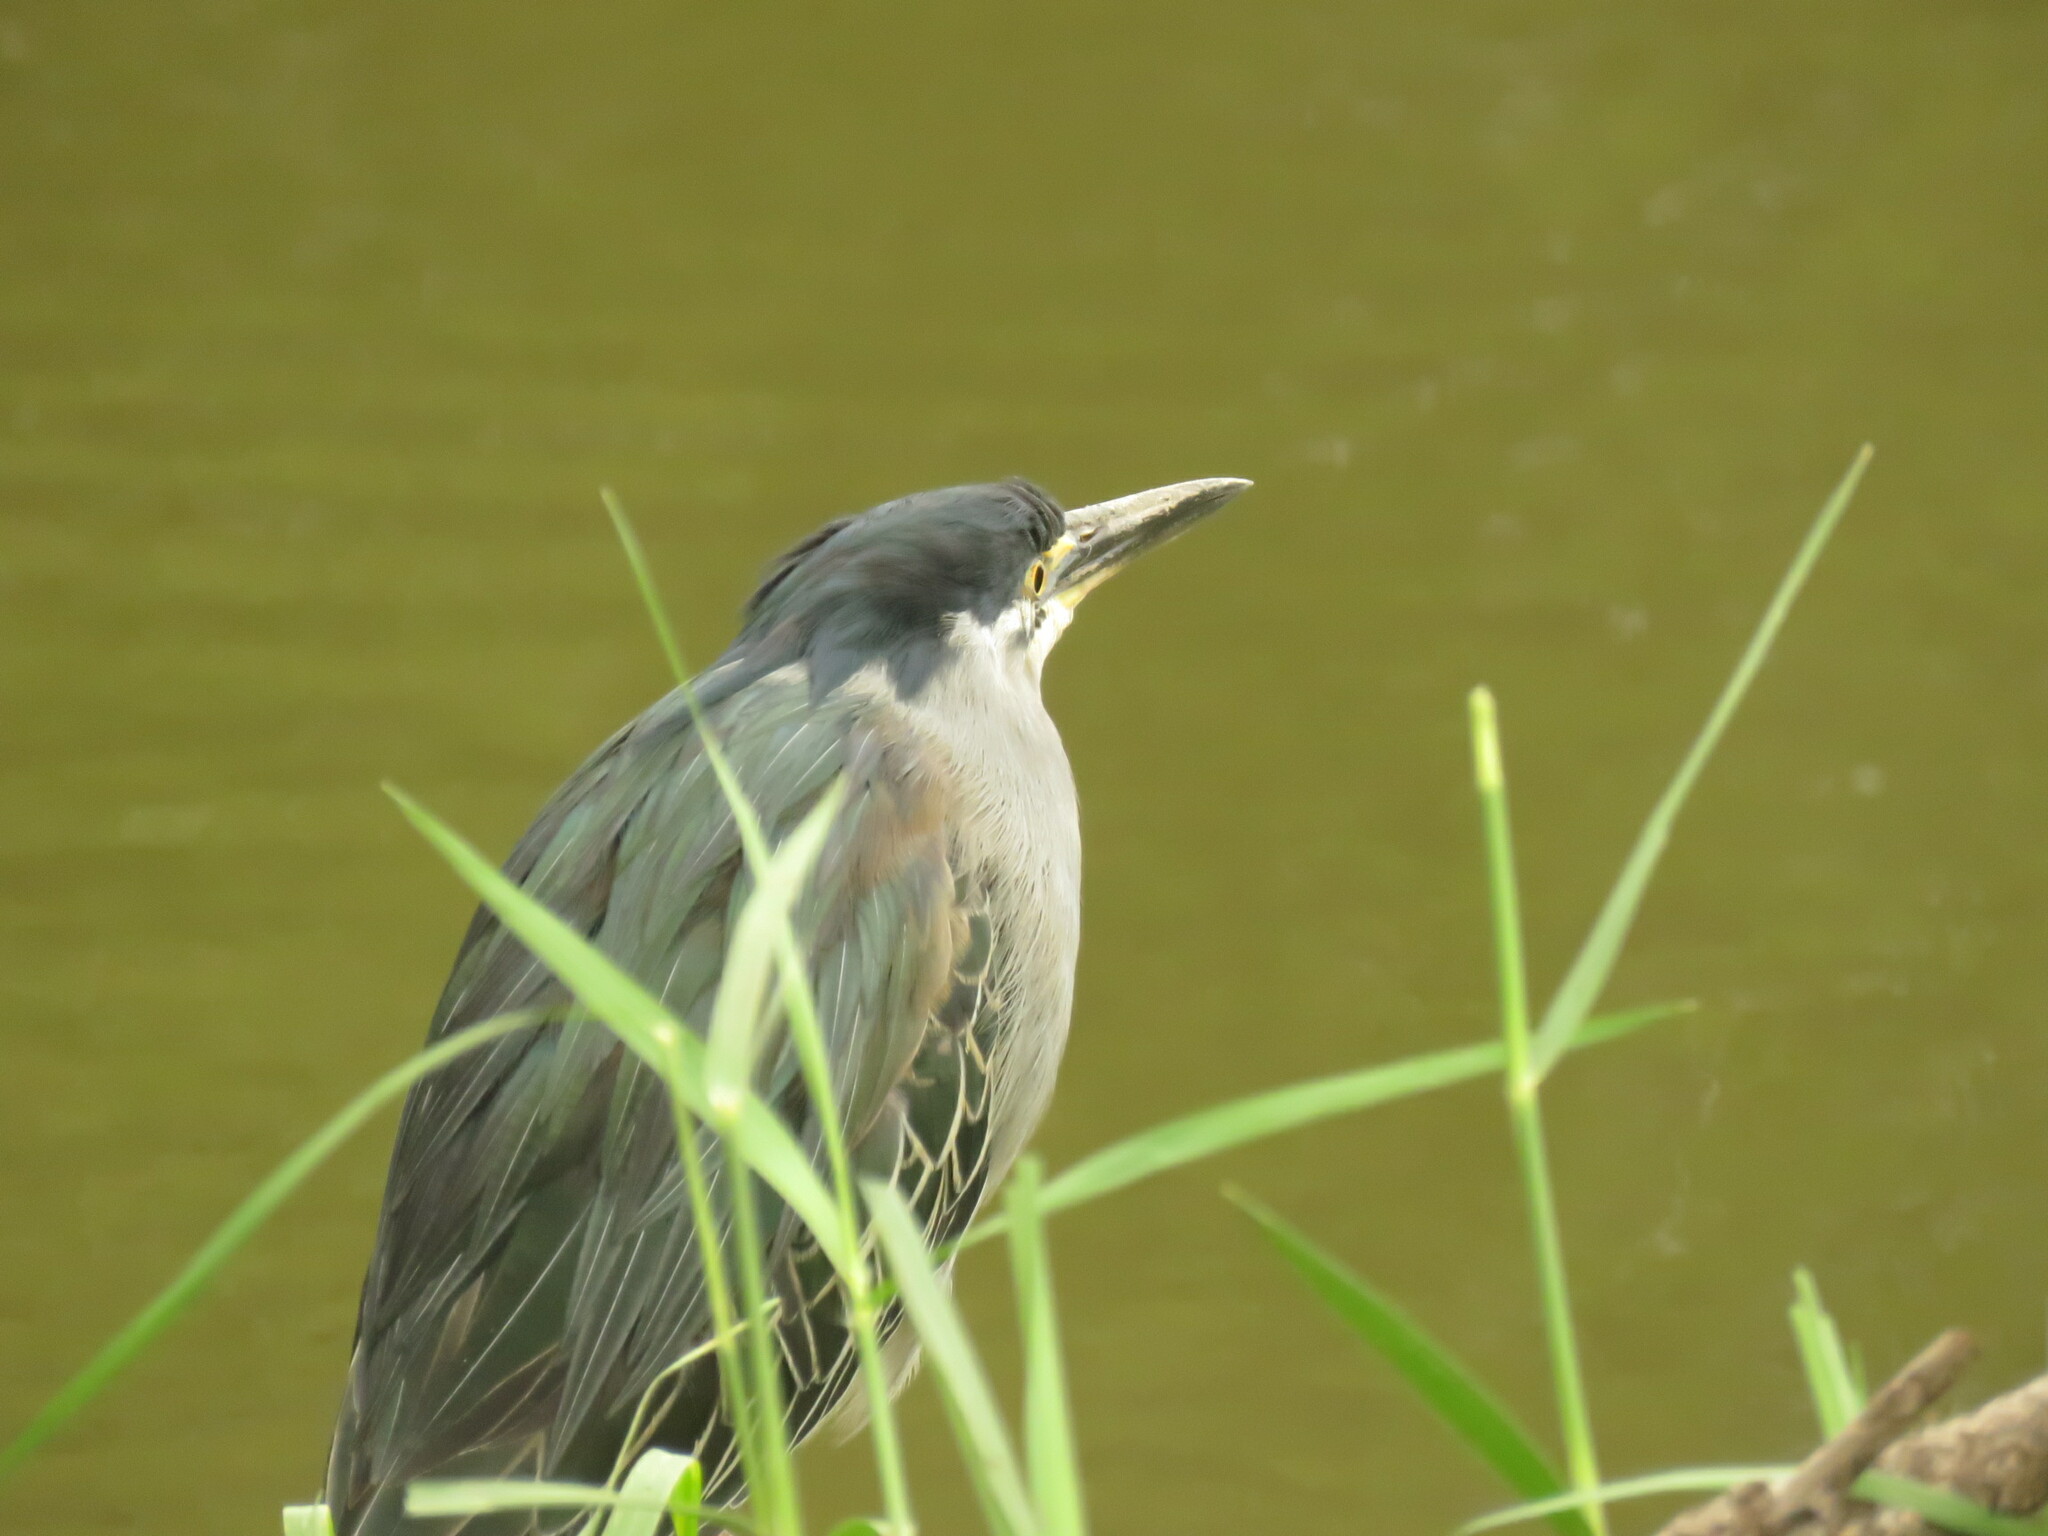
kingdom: Animalia
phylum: Chordata
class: Aves
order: Pelecaniformes
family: Ardeidae
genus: Butorides
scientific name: Butorides striata
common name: Striated heron
